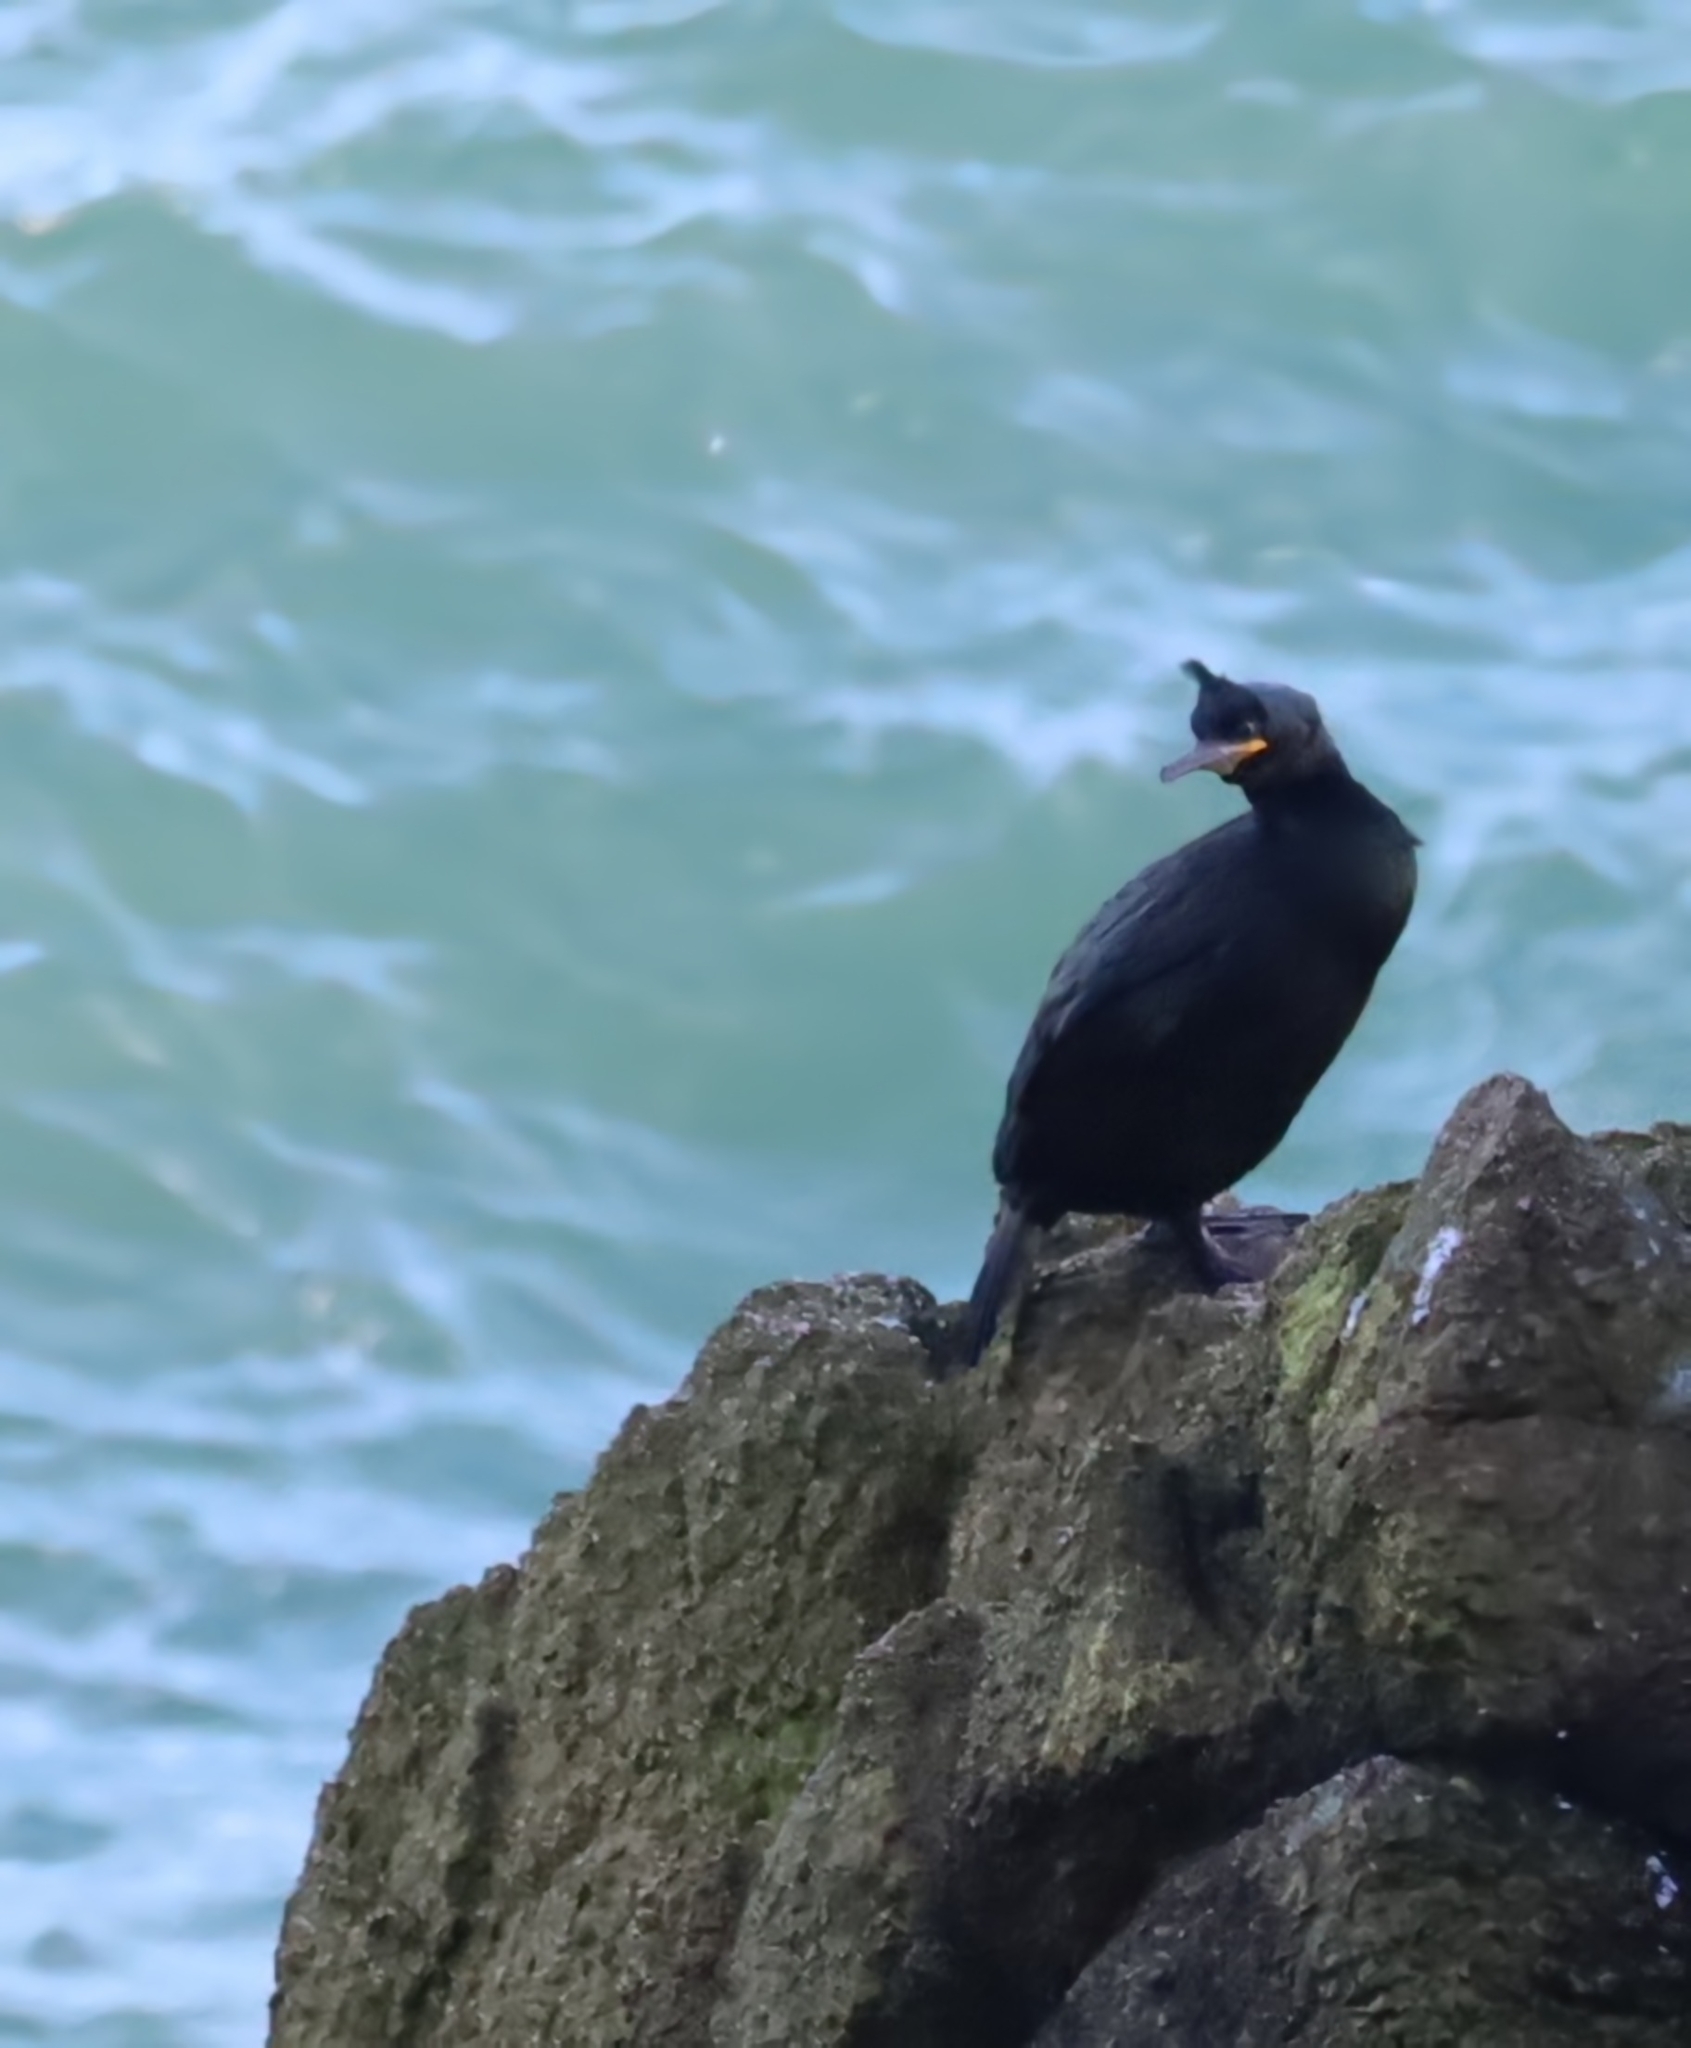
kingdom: Animalia
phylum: Chordata
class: Aves
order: Suliformes
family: Phalacrocoracidae
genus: Phalacrocorax
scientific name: Phalacrocorax aristotelis
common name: European shag
